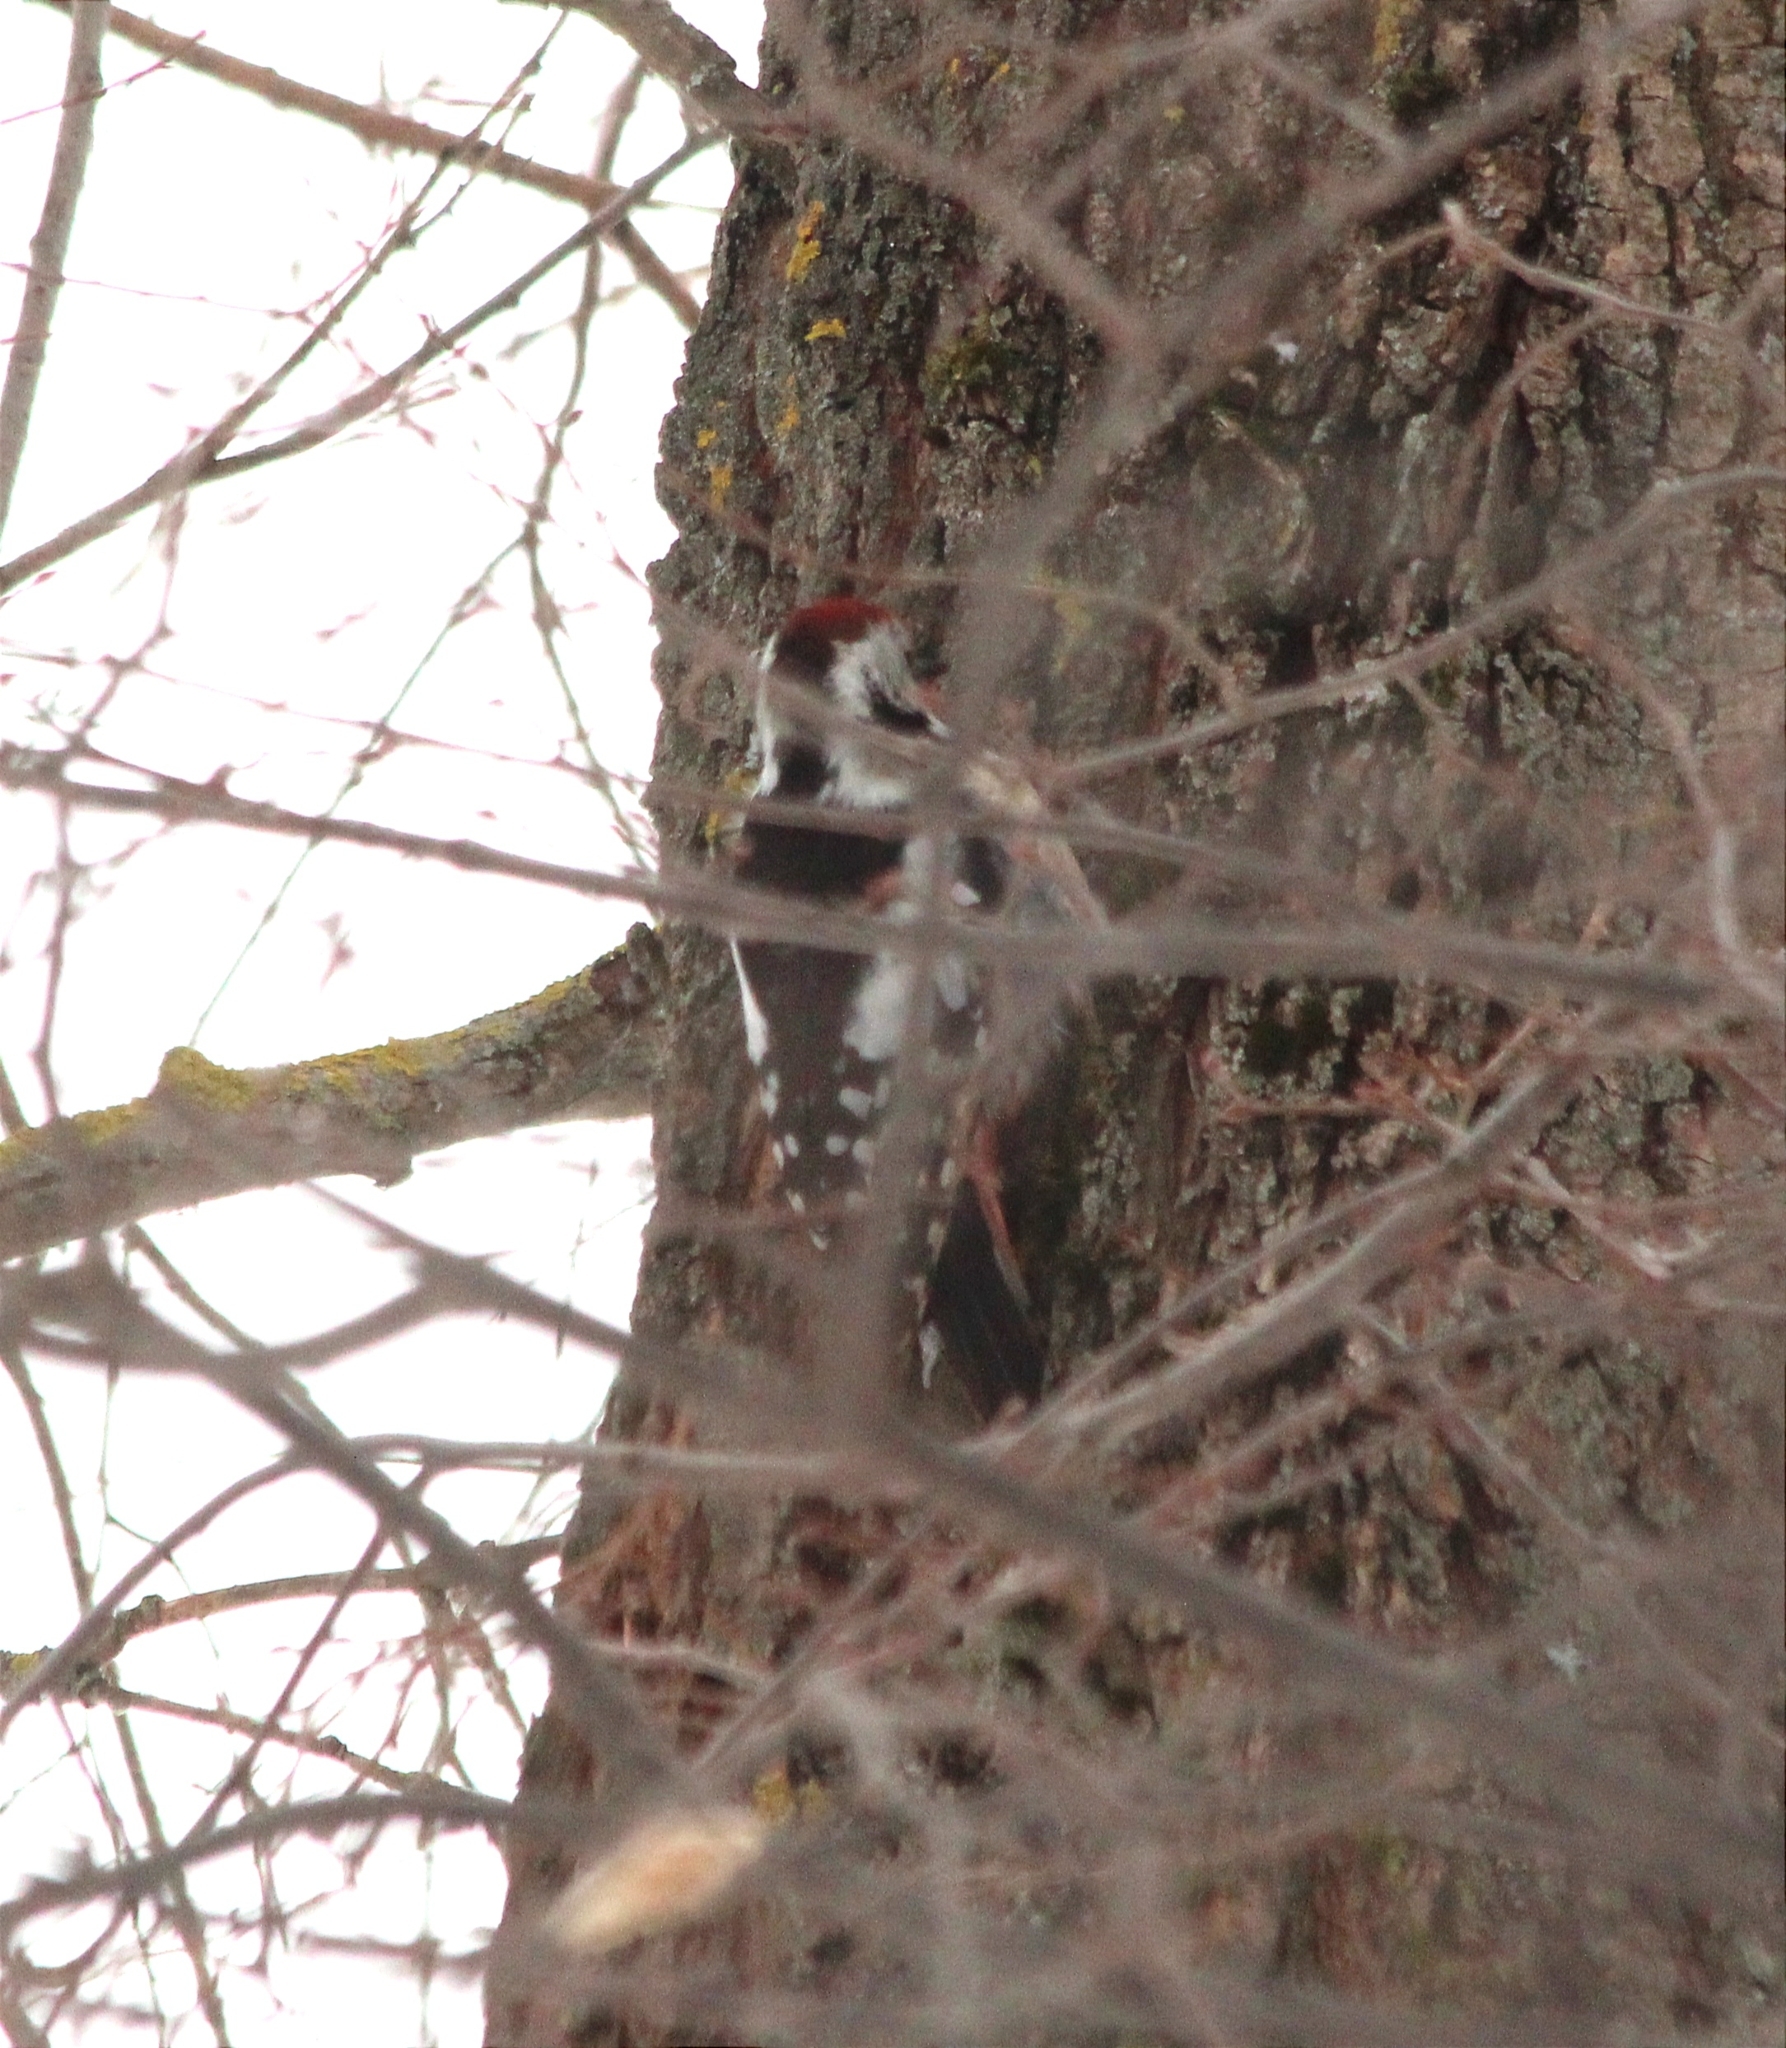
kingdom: Animalia
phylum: Chordata
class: Aves
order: Piciformes
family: Picidae
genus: Dendrocoptes
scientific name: Dendrocoptes medius
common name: Middle spotted woodpecker
